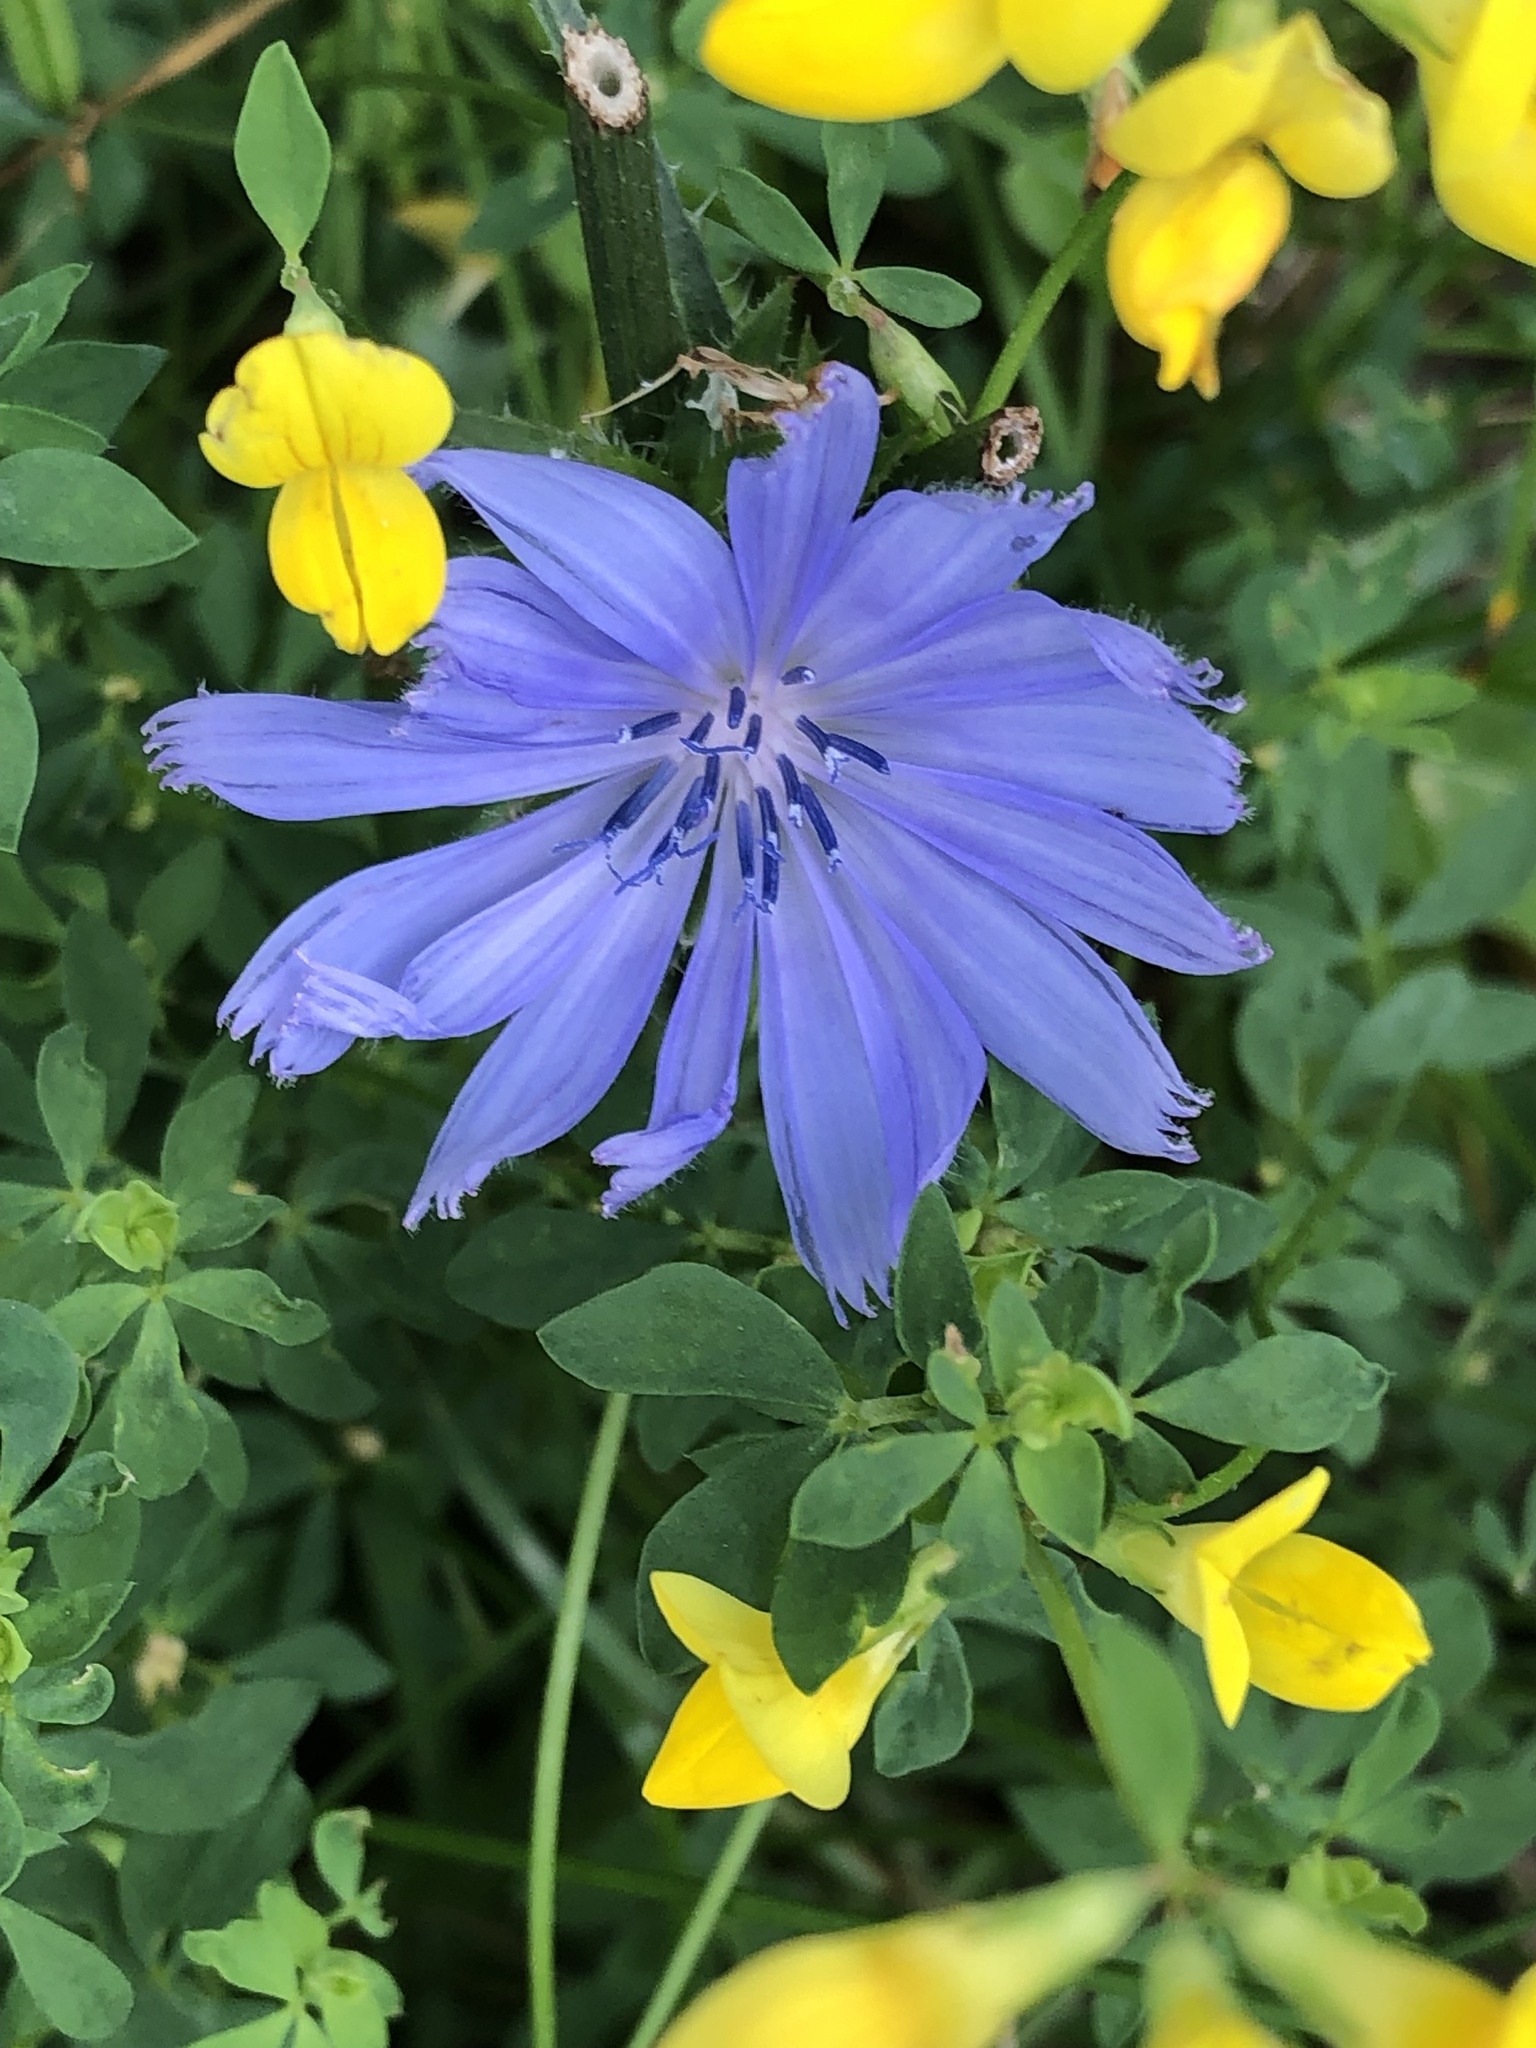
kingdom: Plantae
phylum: Tracheophyta
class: Magnoliopsida
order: Asterales
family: Asteraceae
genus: Cichorium
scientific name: Cichorium intybus
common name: Chicory
